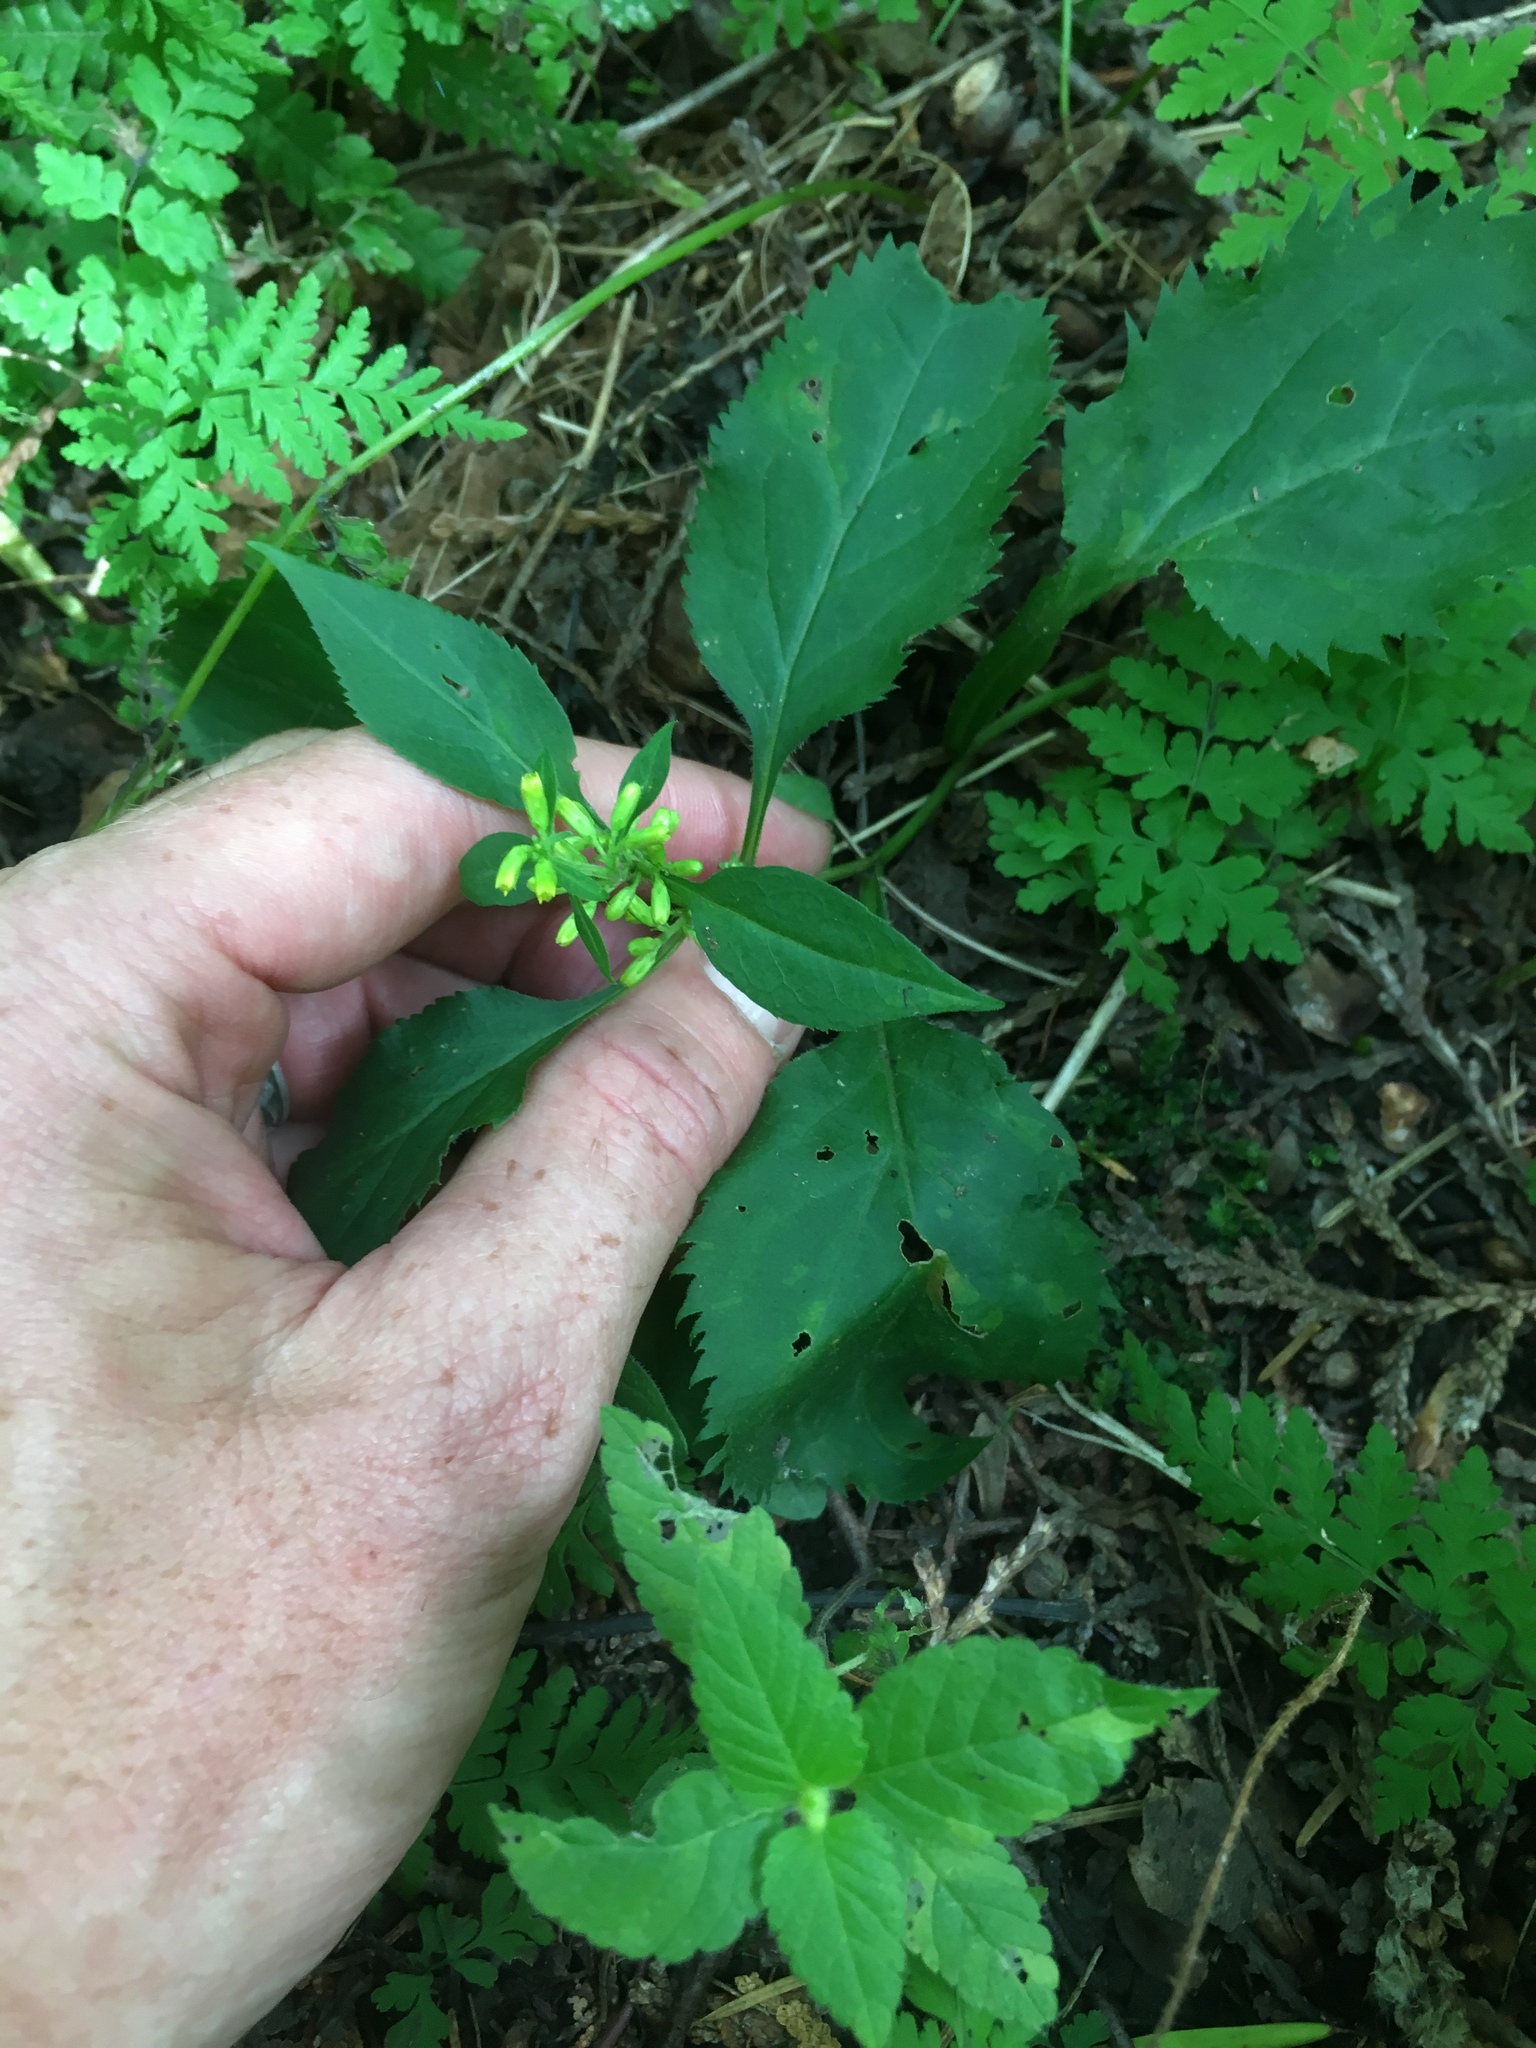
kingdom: Plantae
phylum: Tracheophyta
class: Magnoliopsida
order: Asterales
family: Asteraceae
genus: Solidago
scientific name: Solidago flexicaulis
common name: Zig-zag goldenrod
